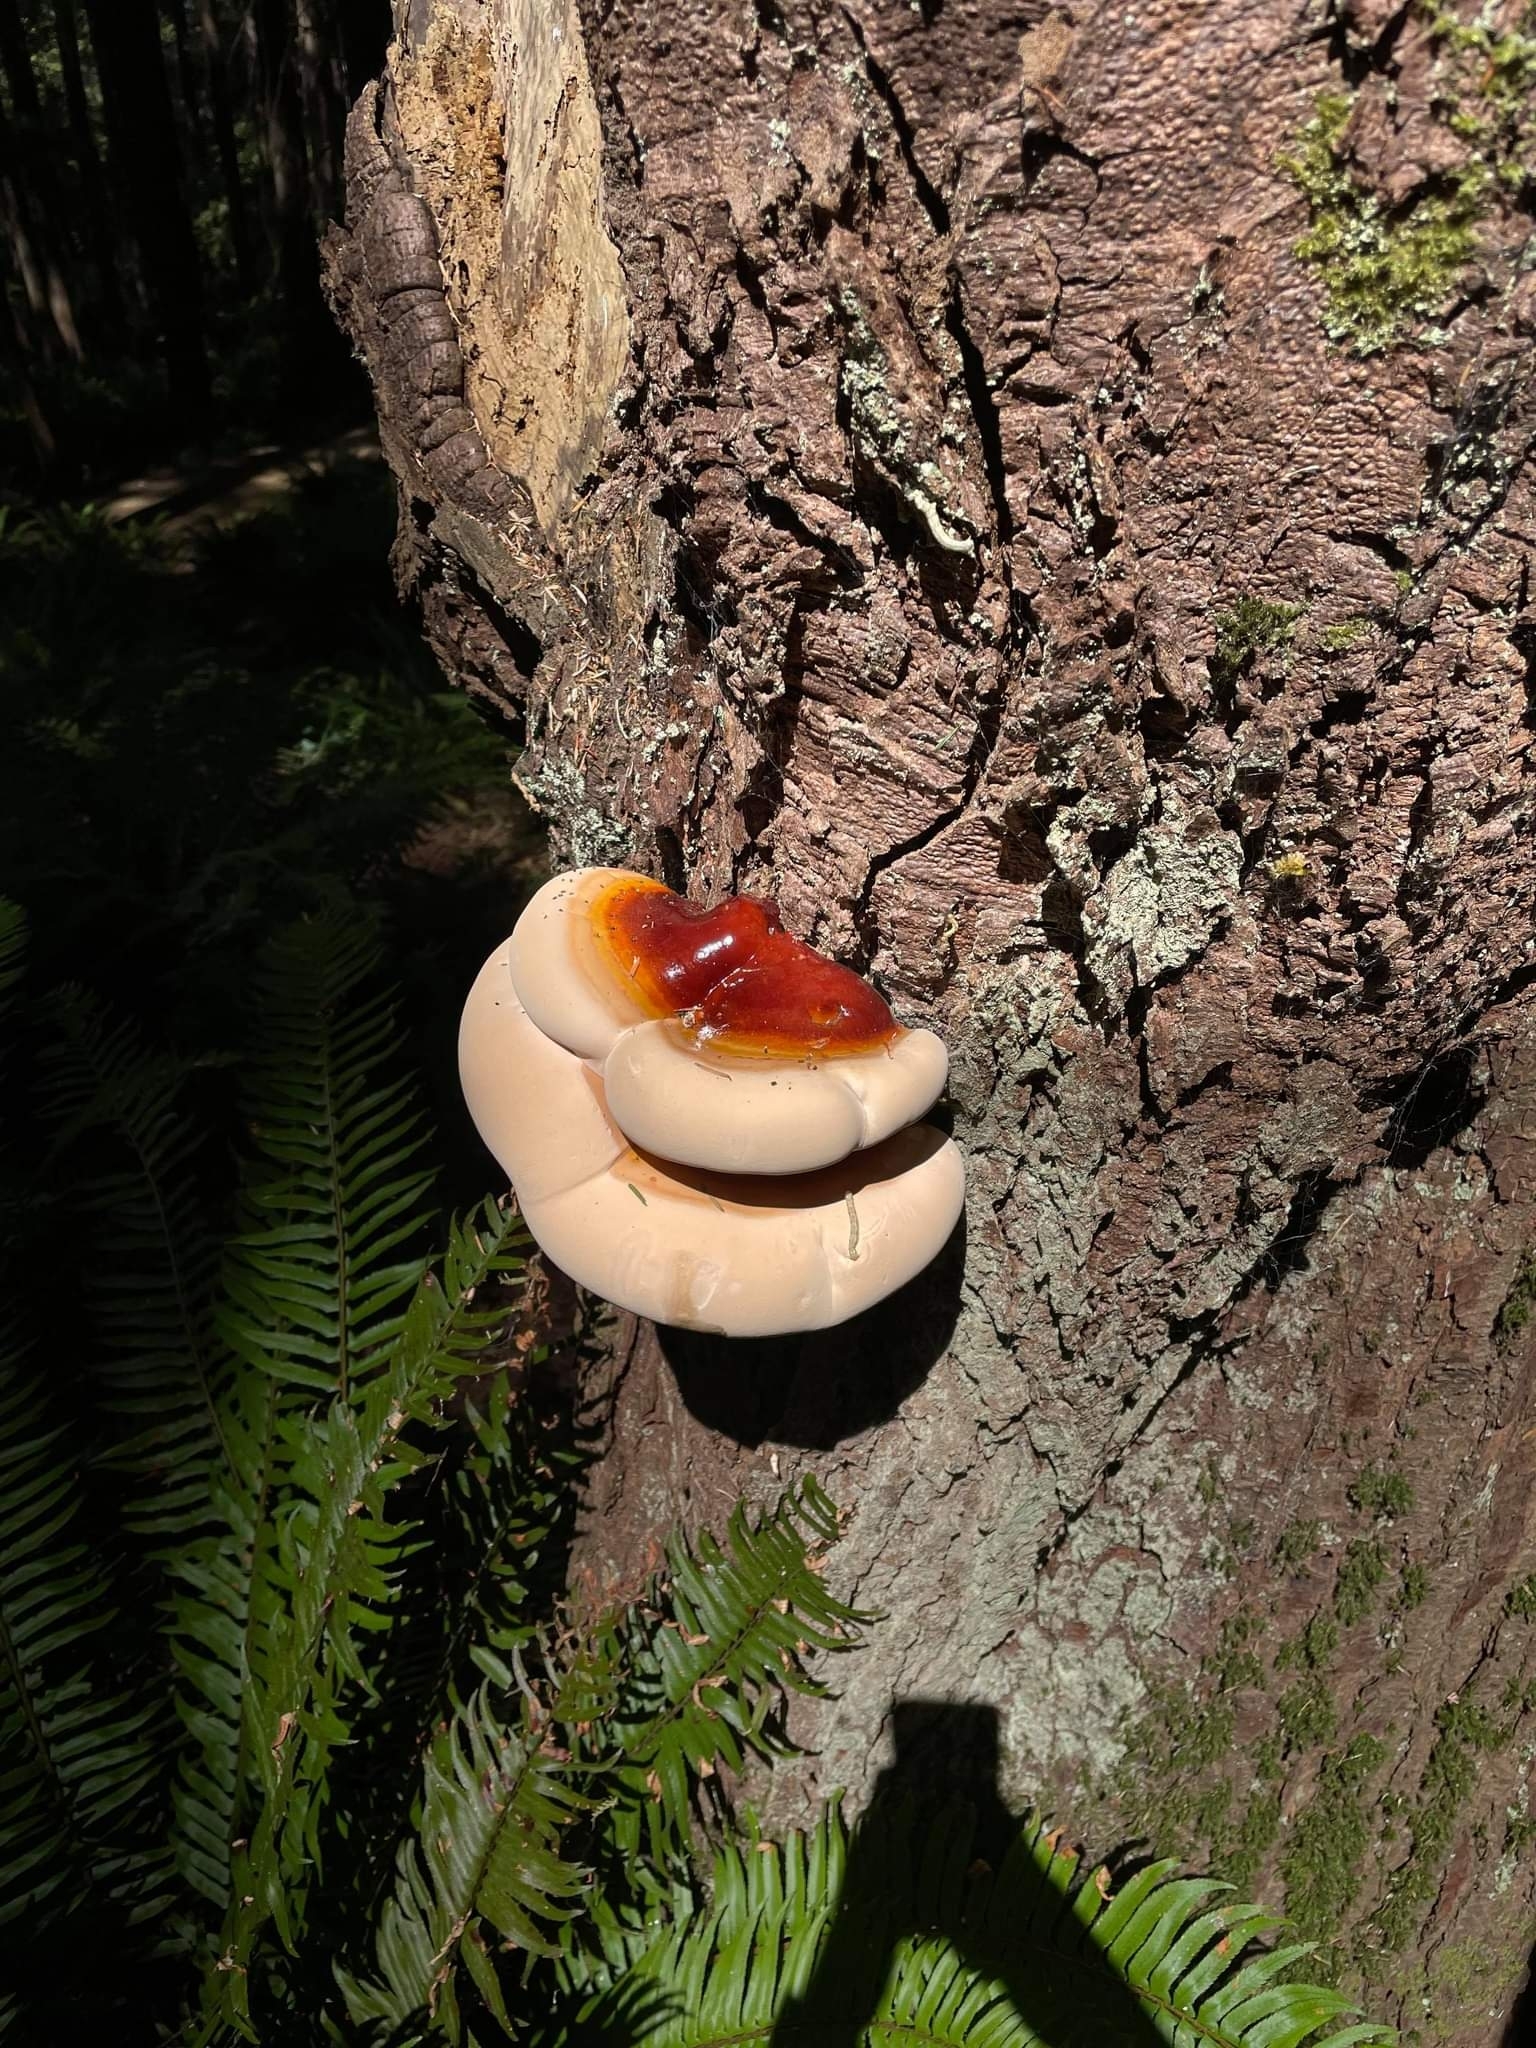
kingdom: Fungi
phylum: Basidiomycota
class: Agaricomycetes
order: Polyporales
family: Polyporaceae
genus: Ganoderma
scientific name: Ganoderma oregonense
